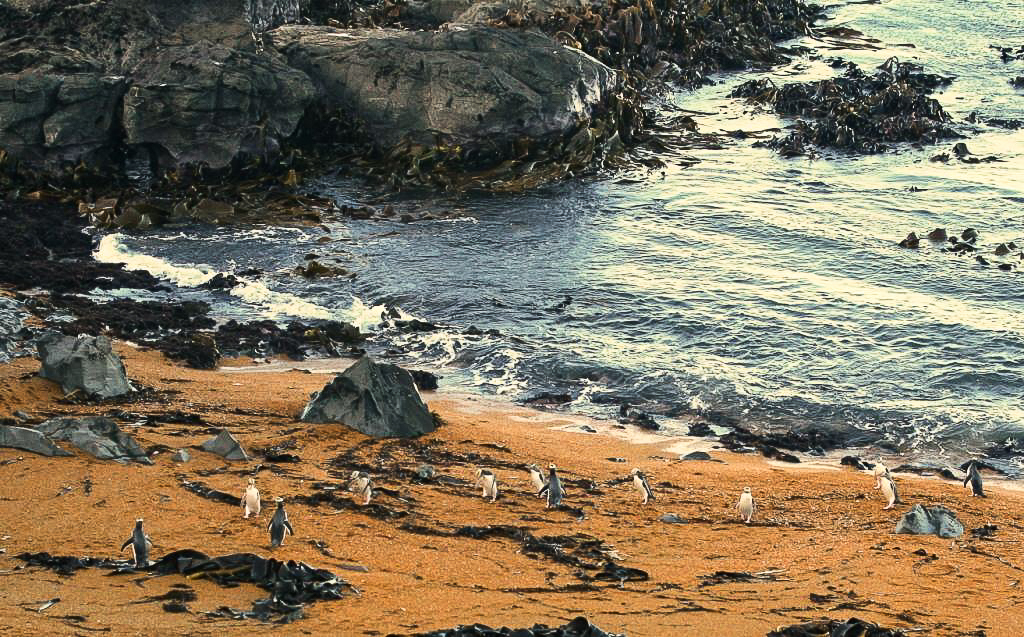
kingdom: Animalia
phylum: Chordata
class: Aves
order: Sphenisciformes
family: Spheniscidae
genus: Megadyptes
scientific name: Megadyptes antipodes
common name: Yellow-eyed penguin
